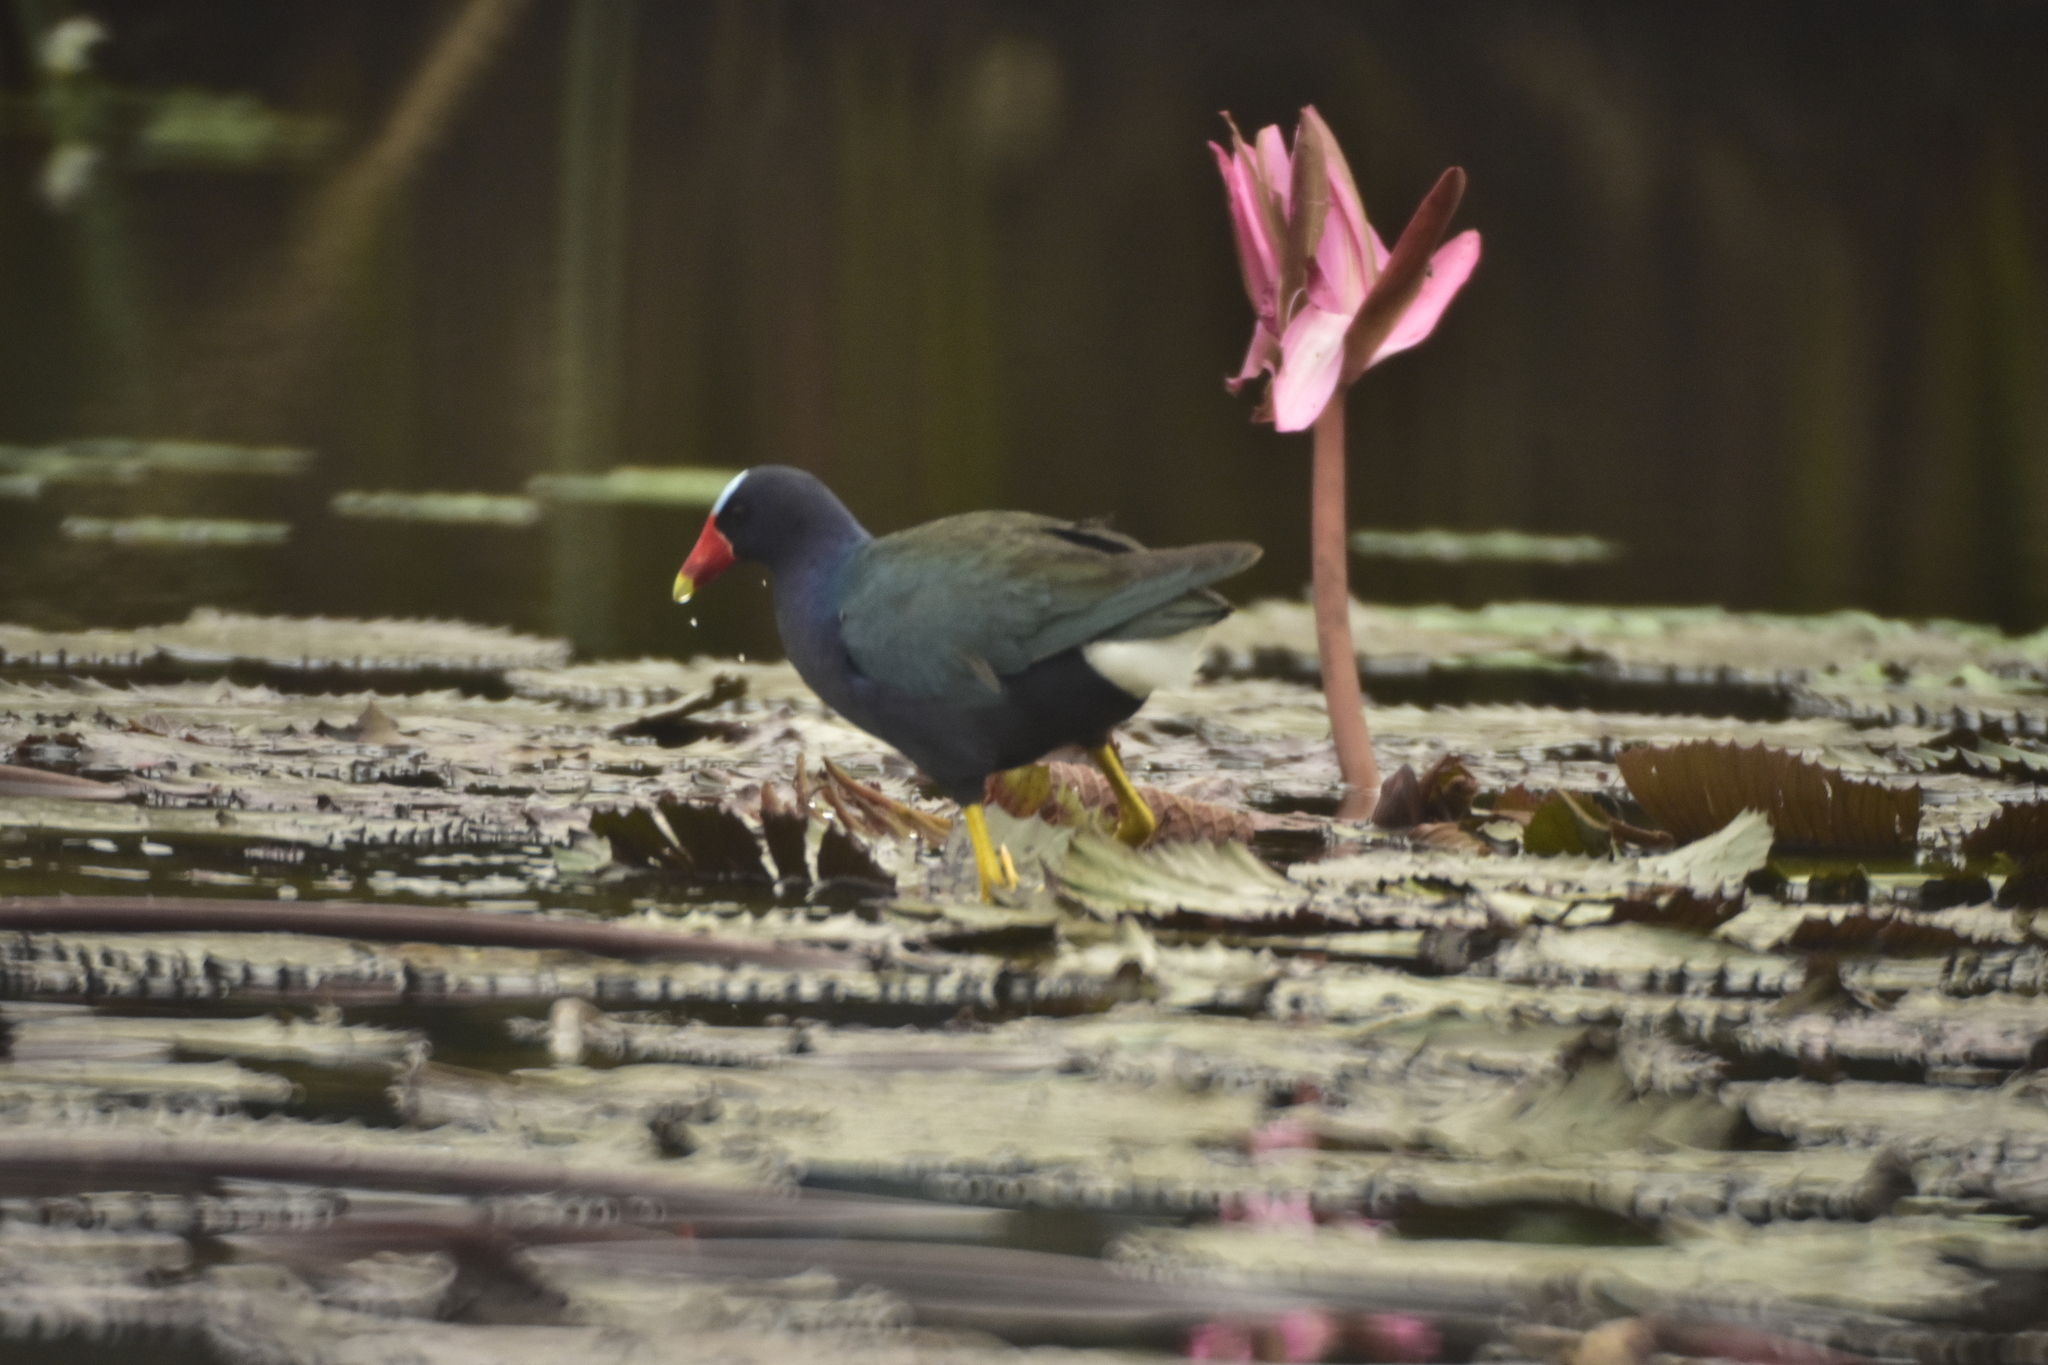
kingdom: Animalia
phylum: Chordata
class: Aves
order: Gruiformes
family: Rallidae
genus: Porphyrio
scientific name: Porphyrio martinica
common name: Purple gallinule
